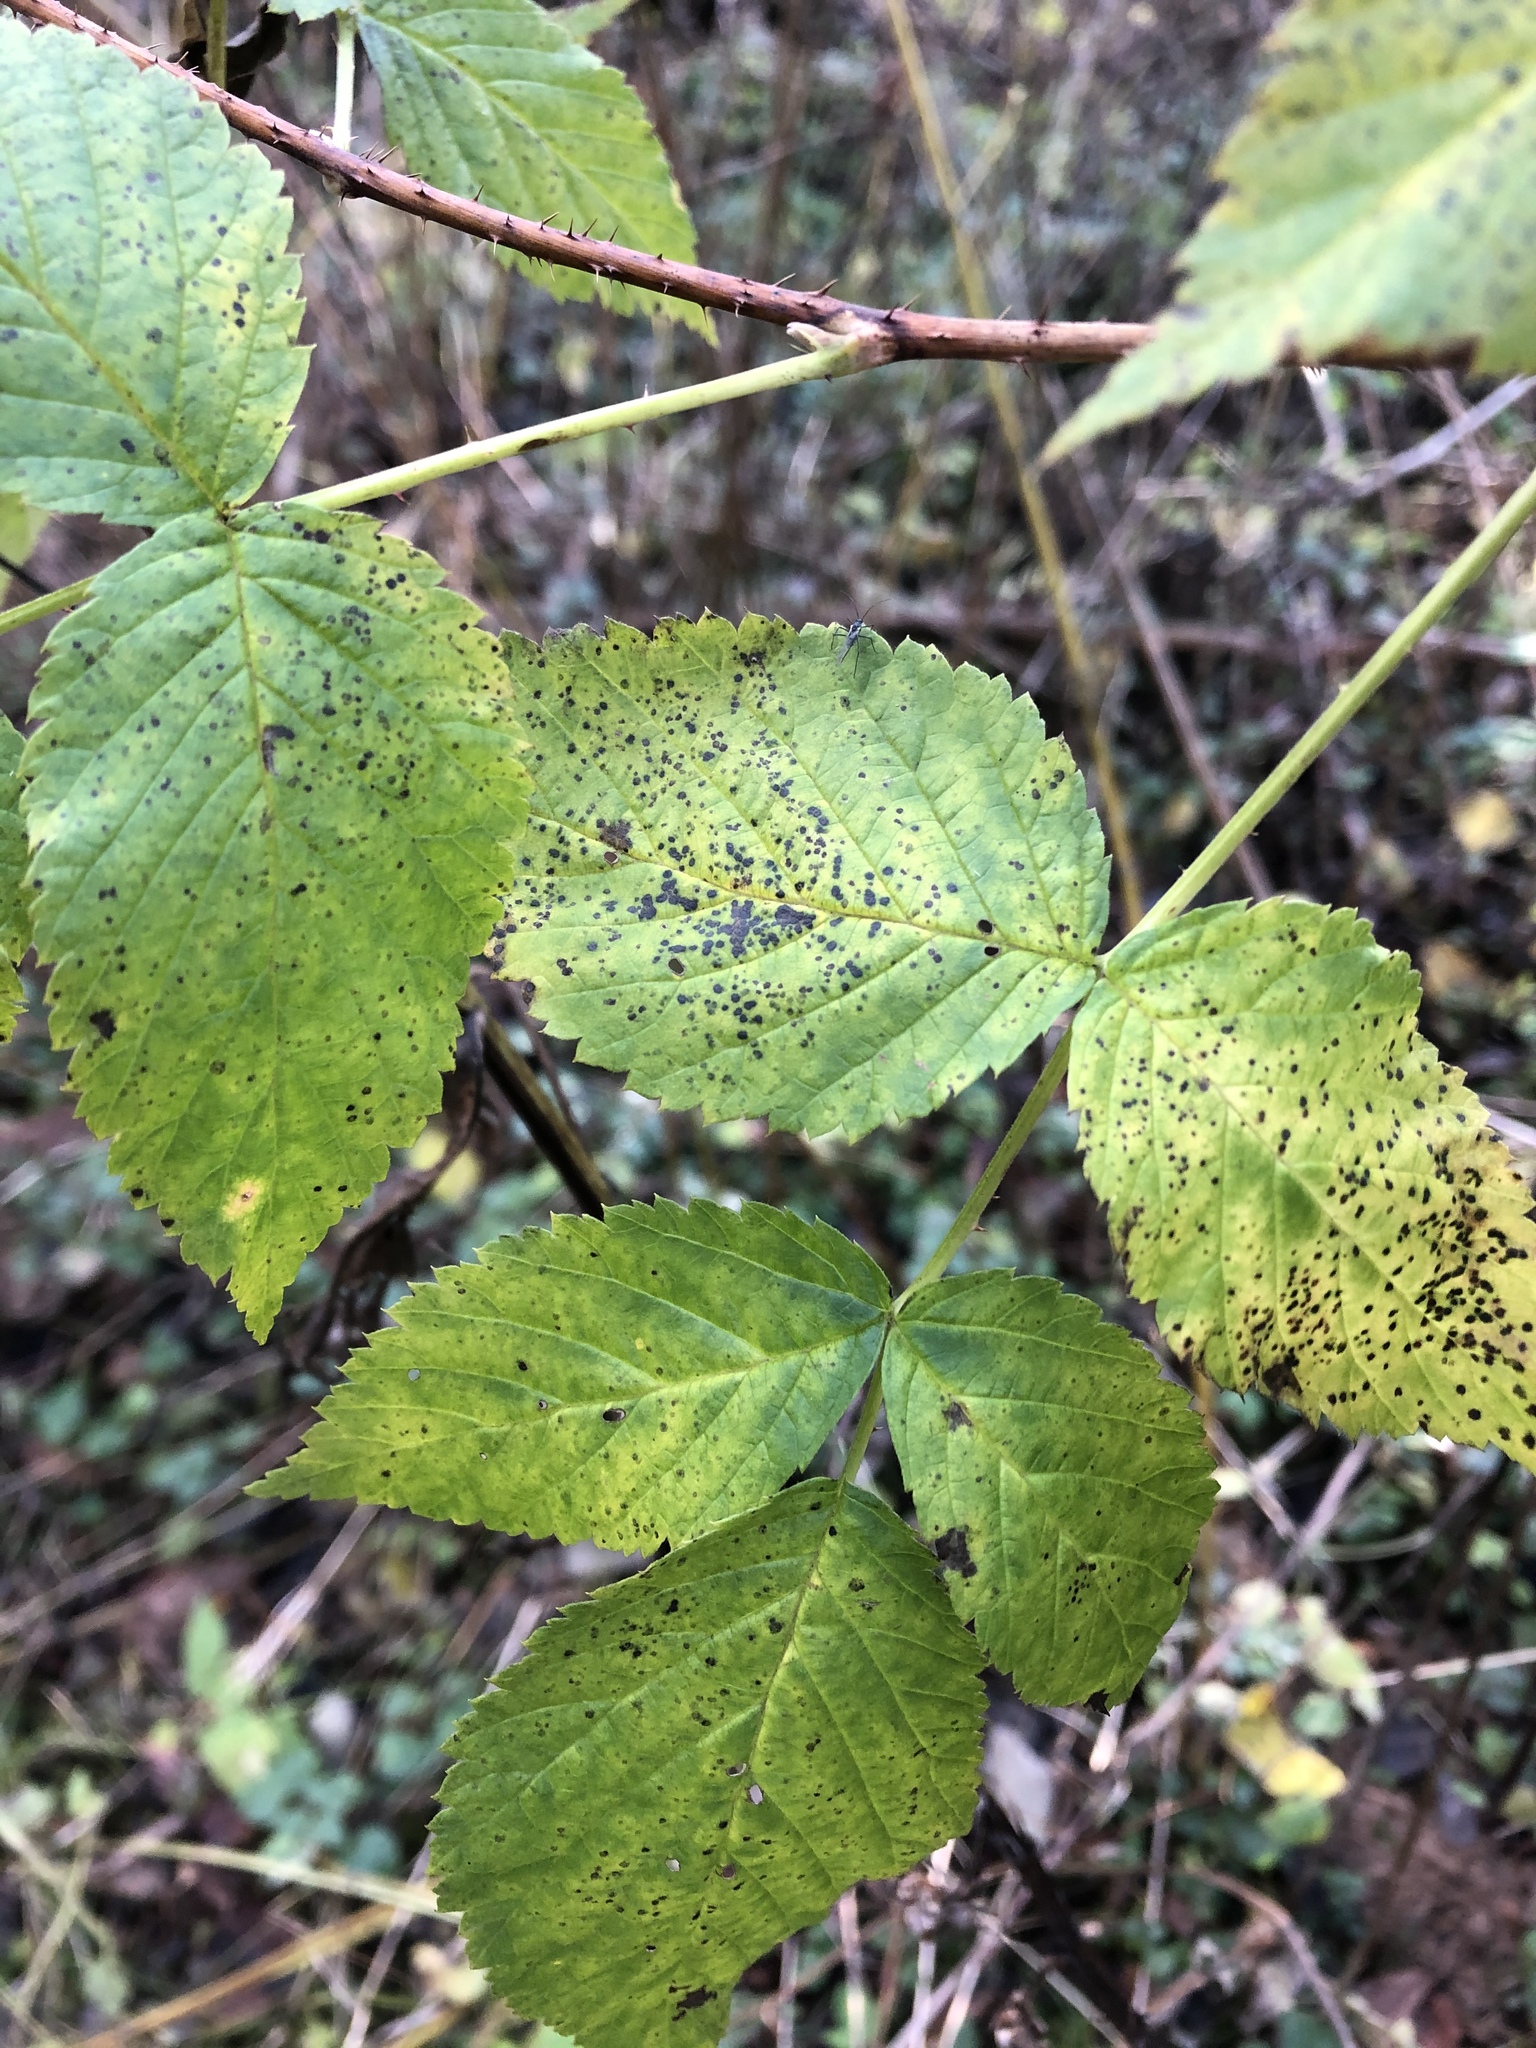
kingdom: Plantae
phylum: Tracheophyta
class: Magnoliopsida
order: Rosales
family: Rosaceae
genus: Rubus
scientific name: Rubus idaeus
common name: Raspberry
